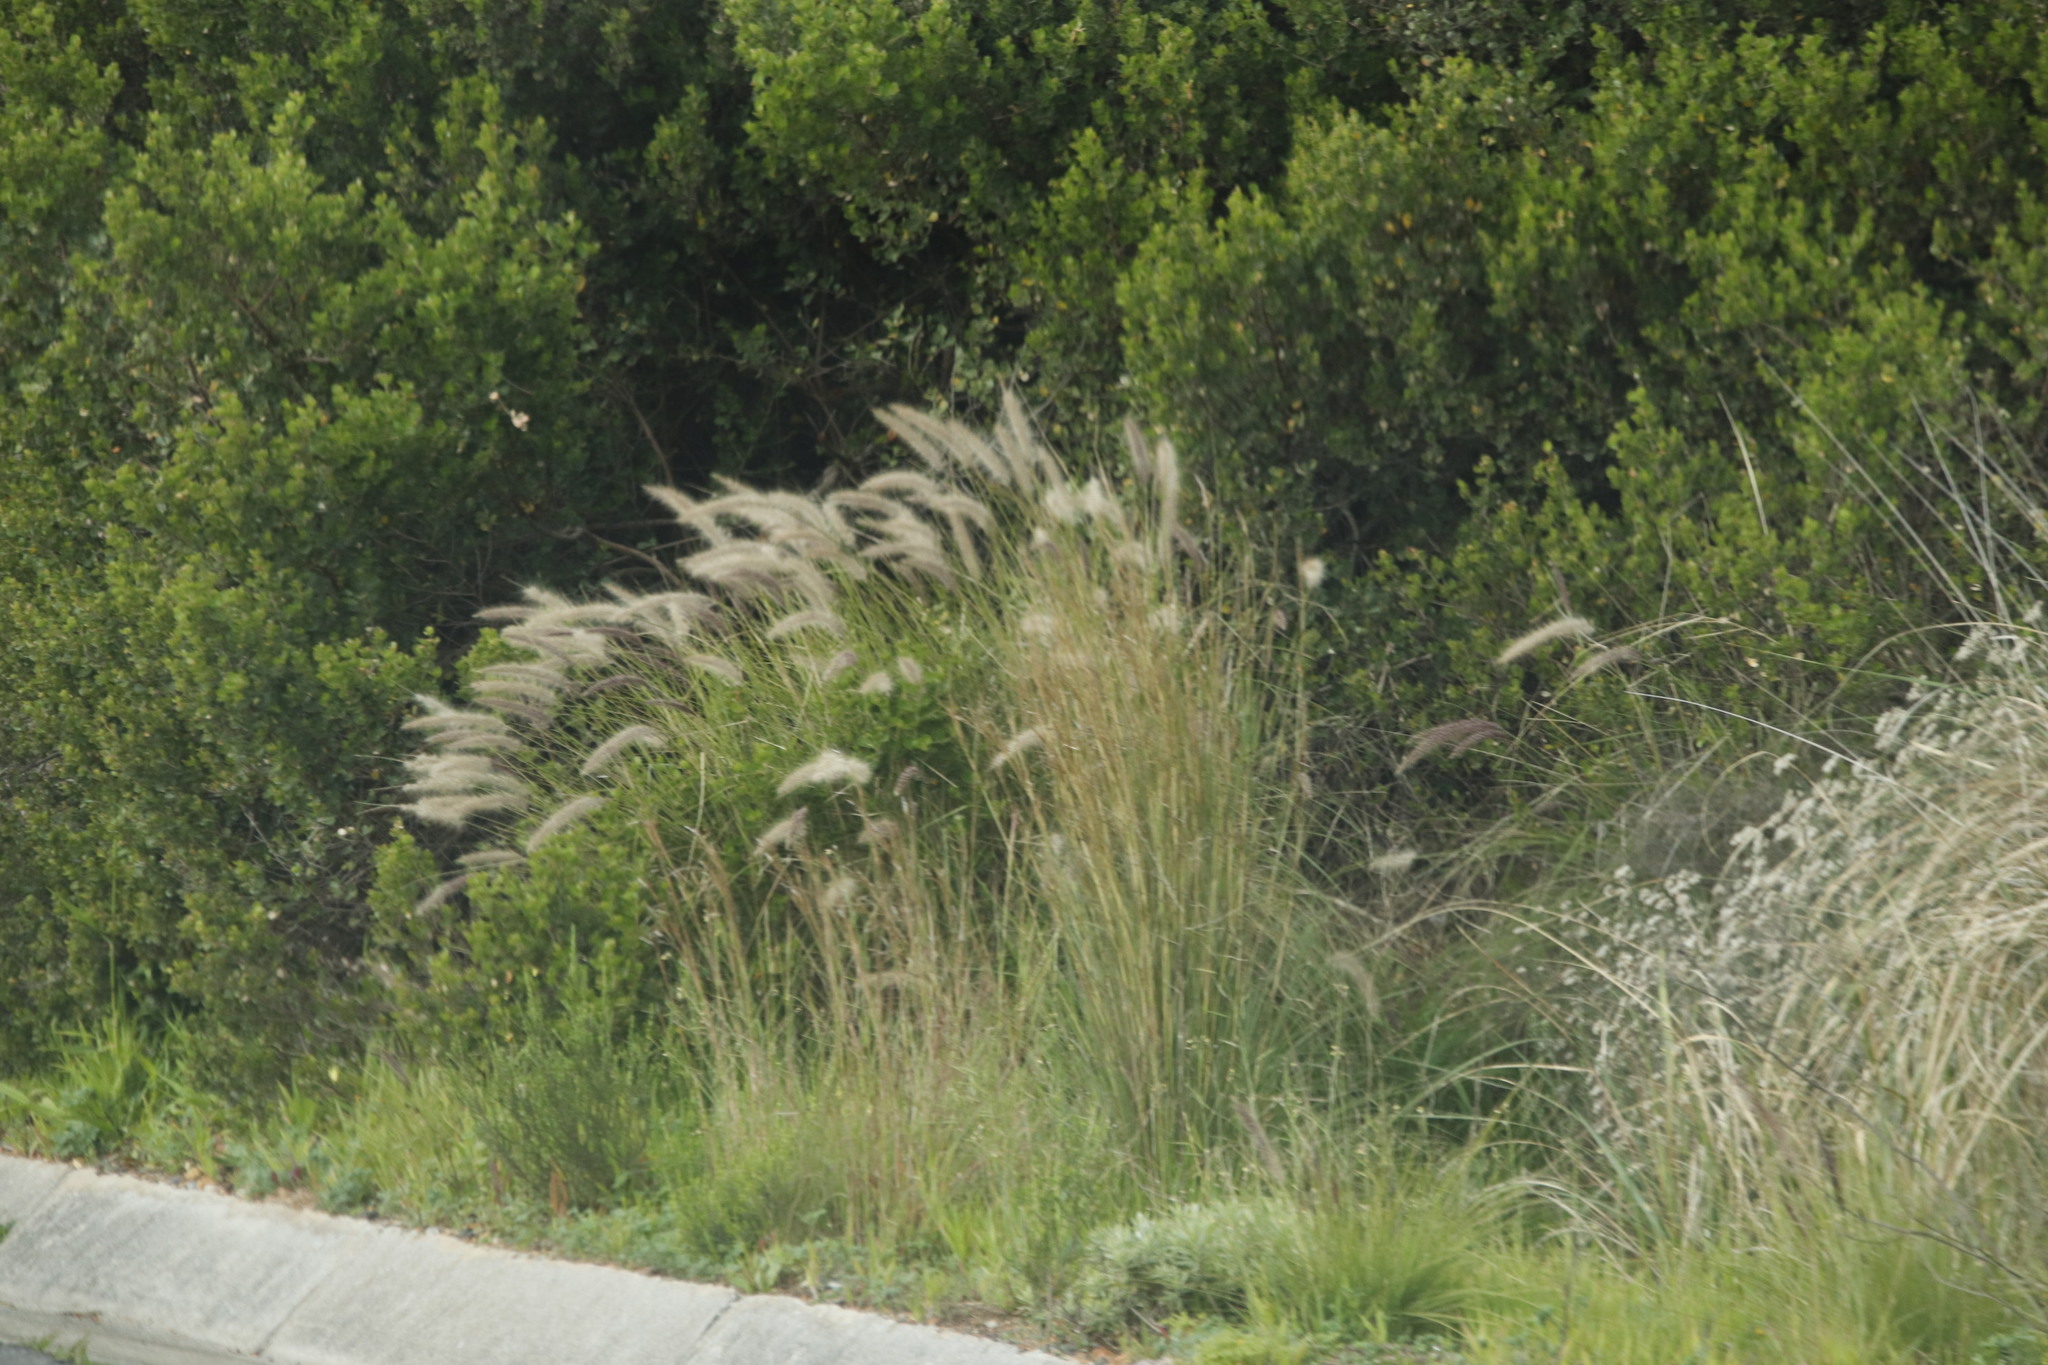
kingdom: Plantae
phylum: Tracheophyta
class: Liliopsida
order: Poales
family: Poaceae
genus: Cenchrus
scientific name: Cenchrus setaceus
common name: Crimson fountaingrass
